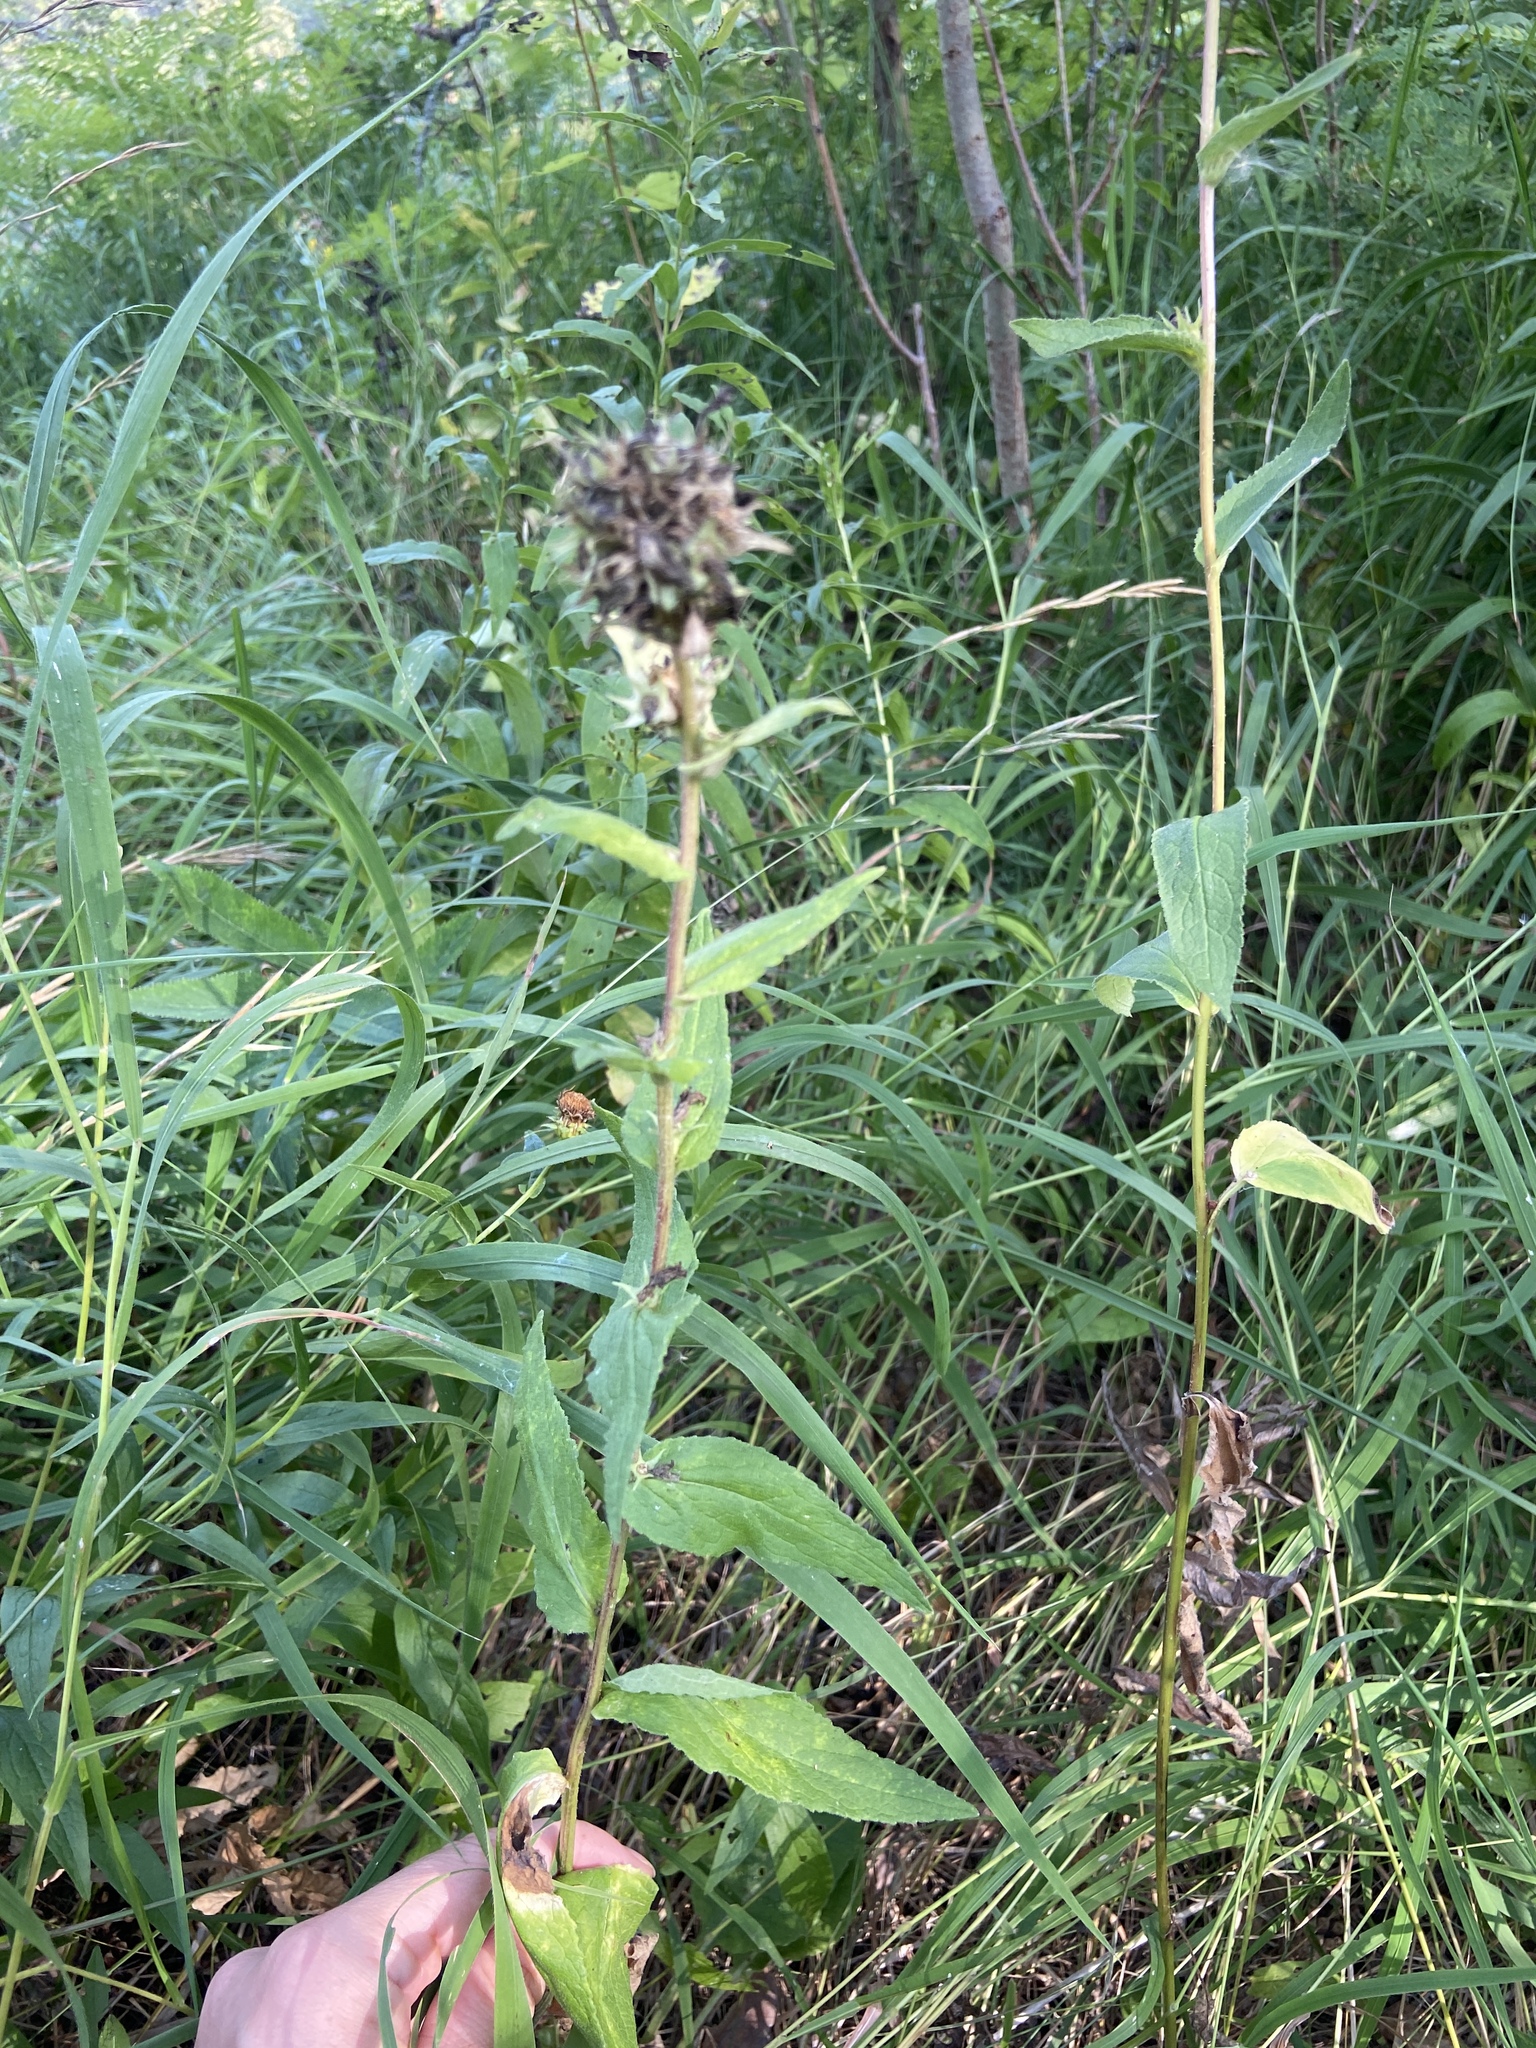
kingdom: Plantae
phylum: Tracheophyta
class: Magnoliopsida
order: Asterales
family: Campanulaceae
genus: Campanula
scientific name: Campanula cervicaria
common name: Bristly bellflower
